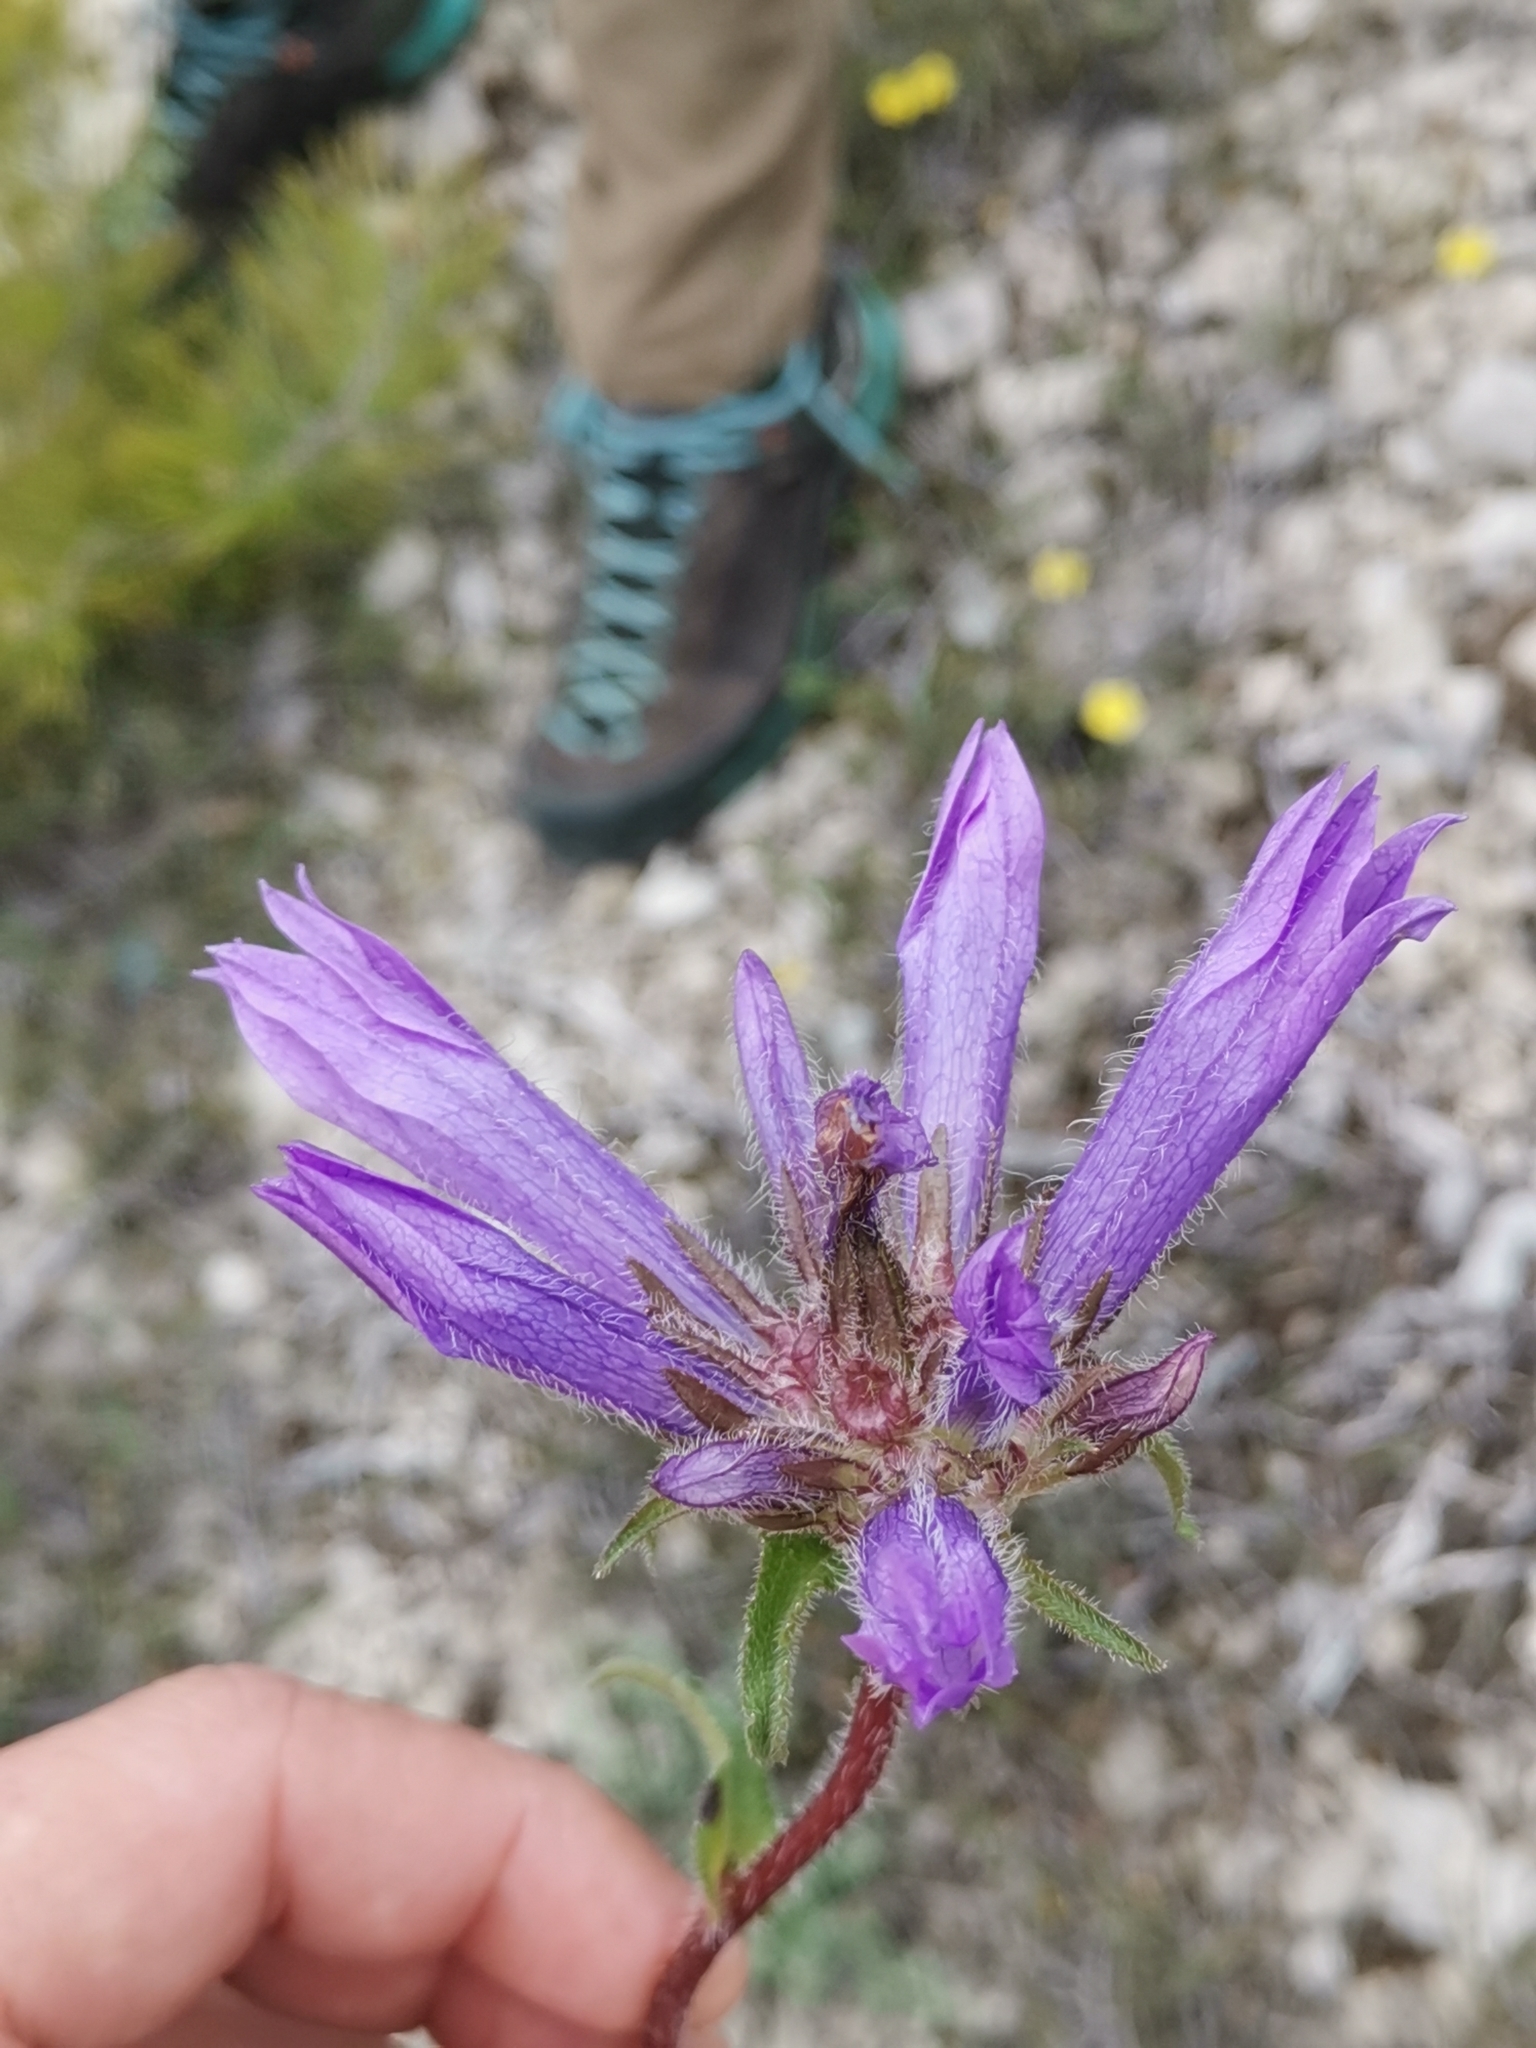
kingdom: Plantae
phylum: Tracheophyta
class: Magnoliopsida
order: Asterales
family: Campanulaceae
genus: Campanula
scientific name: Campanula lingulata
